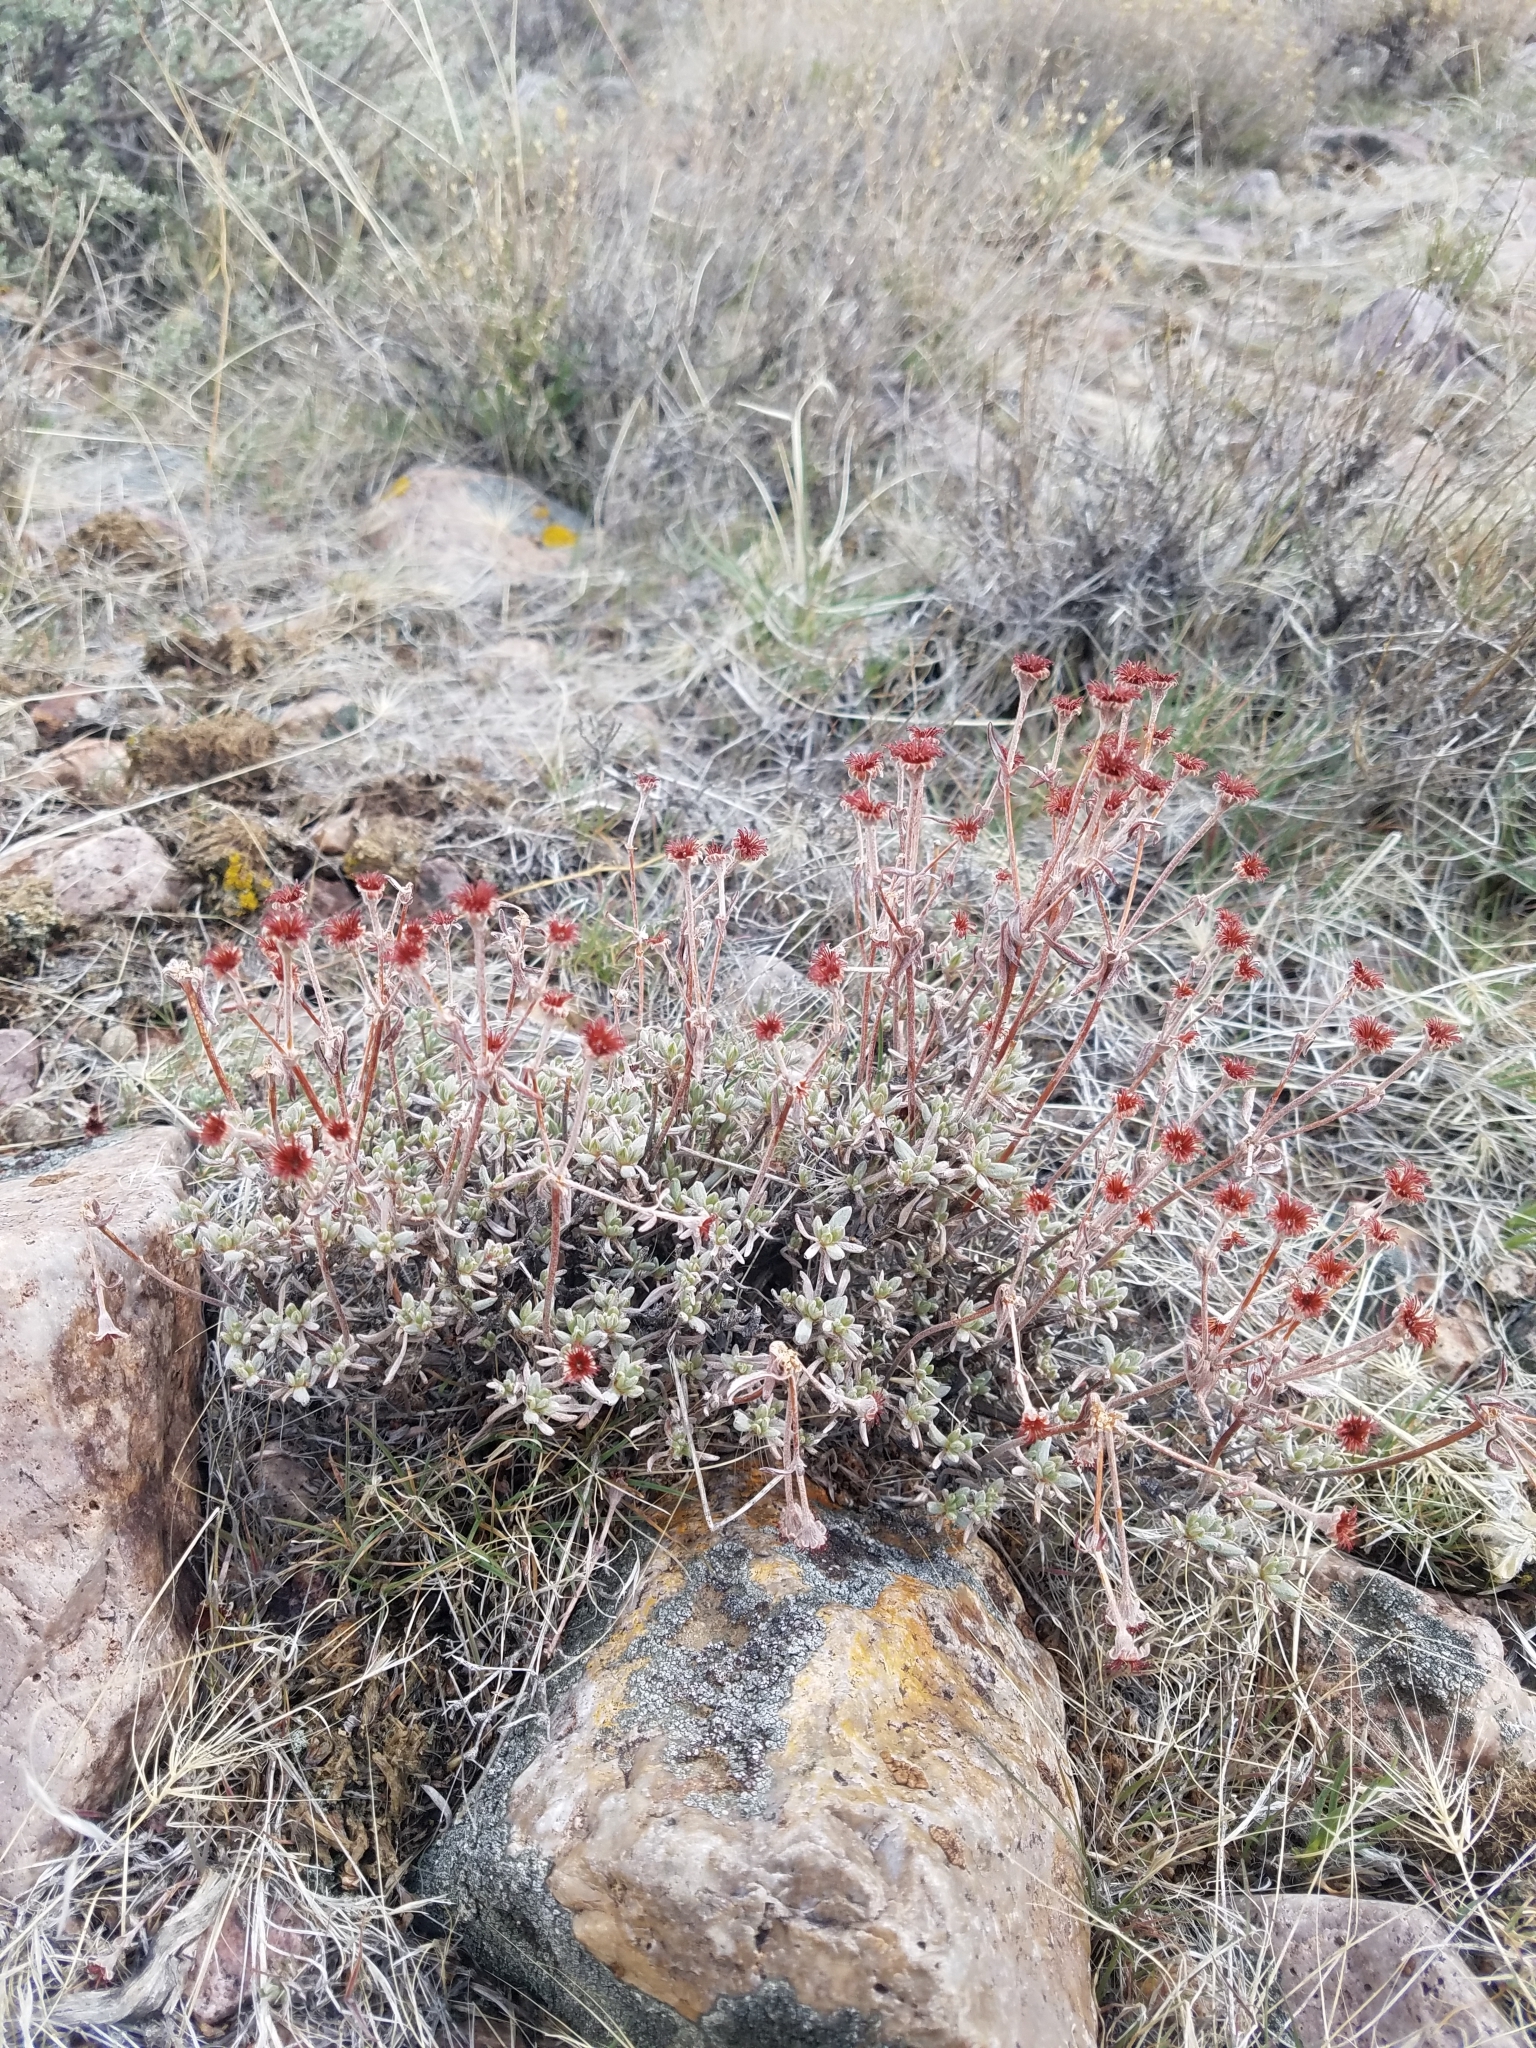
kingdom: Plantae
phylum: Tracheophyta
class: Magnoliopsida
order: Caryophyllales
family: Polygonaceae
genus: Eriogonum
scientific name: Eriogonum sphaerocephalum
